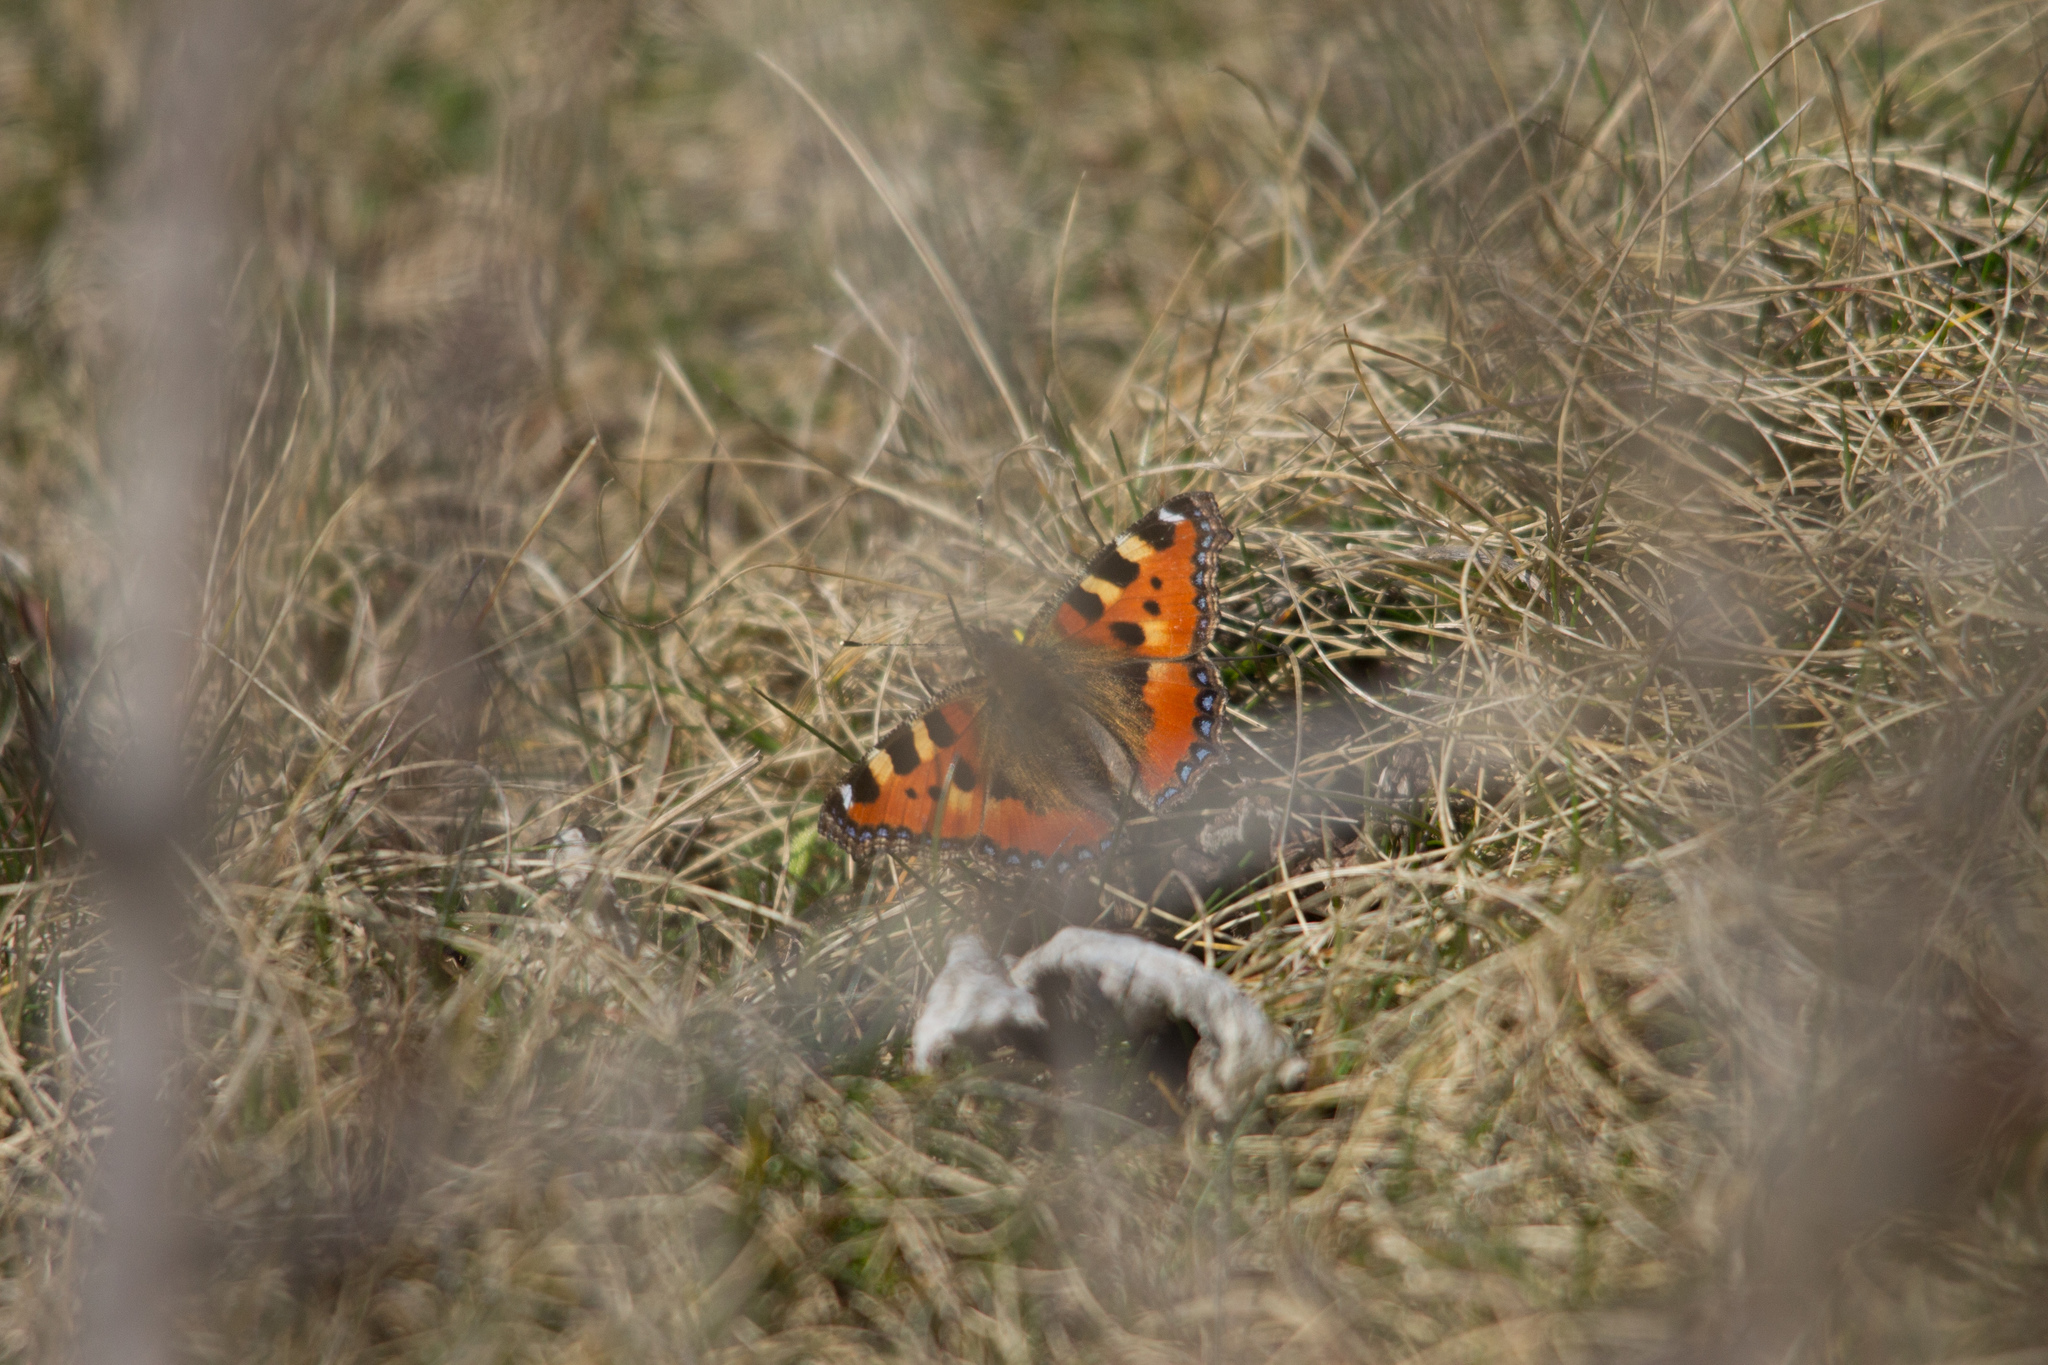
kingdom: Animalia
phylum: Arthropoda
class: Insecta
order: Lepidoptera
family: Nymphalidae
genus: Aglais
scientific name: Aglais urticae
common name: Small tortoiseshell
